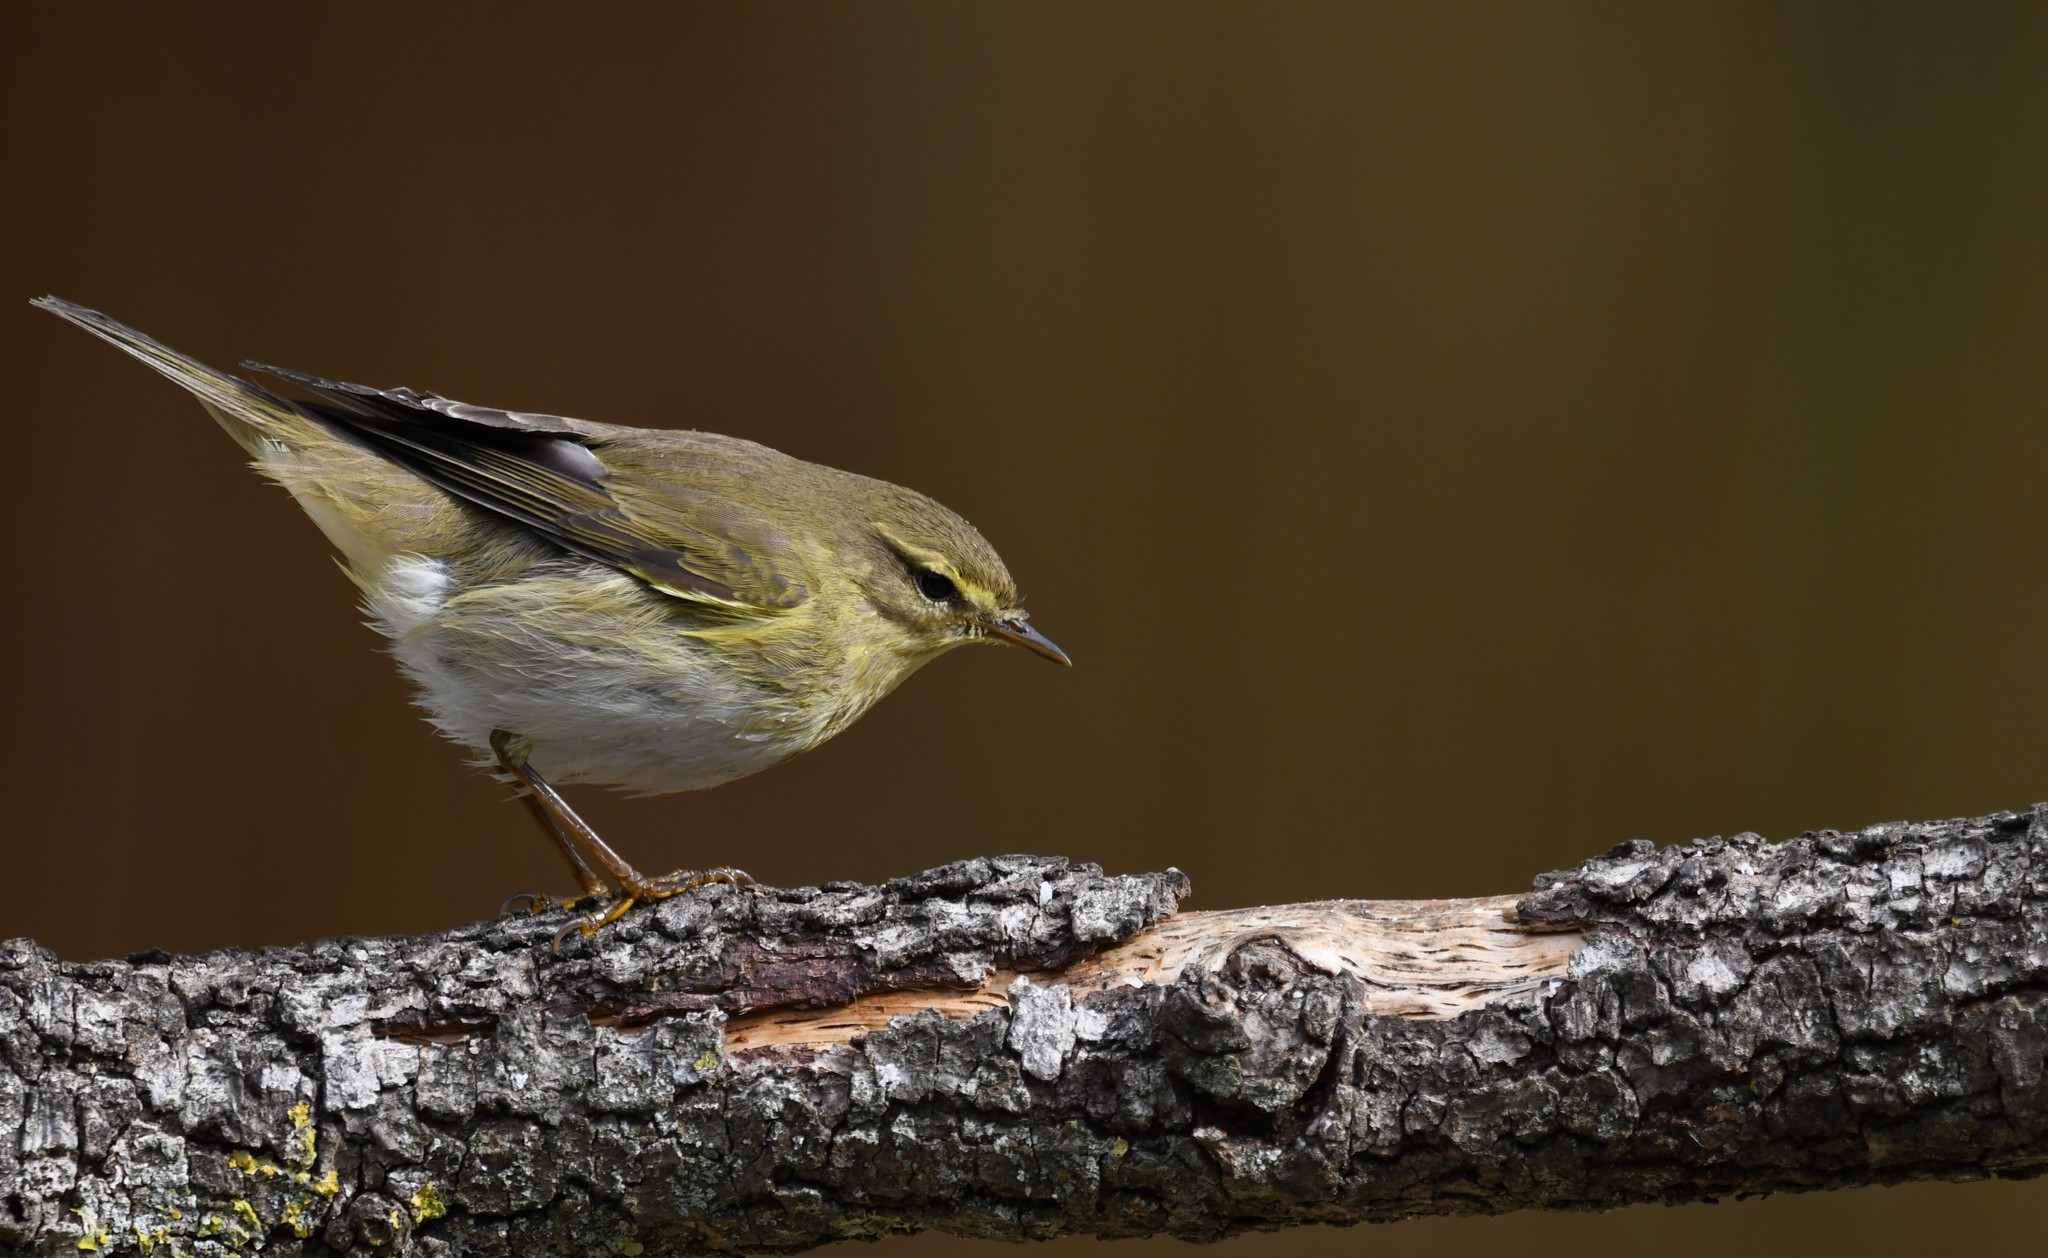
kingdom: Animalia
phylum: Chordata
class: Aves
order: Passeriformes
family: Phylloscopidae
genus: Phylloscopus
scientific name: Phylloscopus trochilus
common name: Willow warbler
